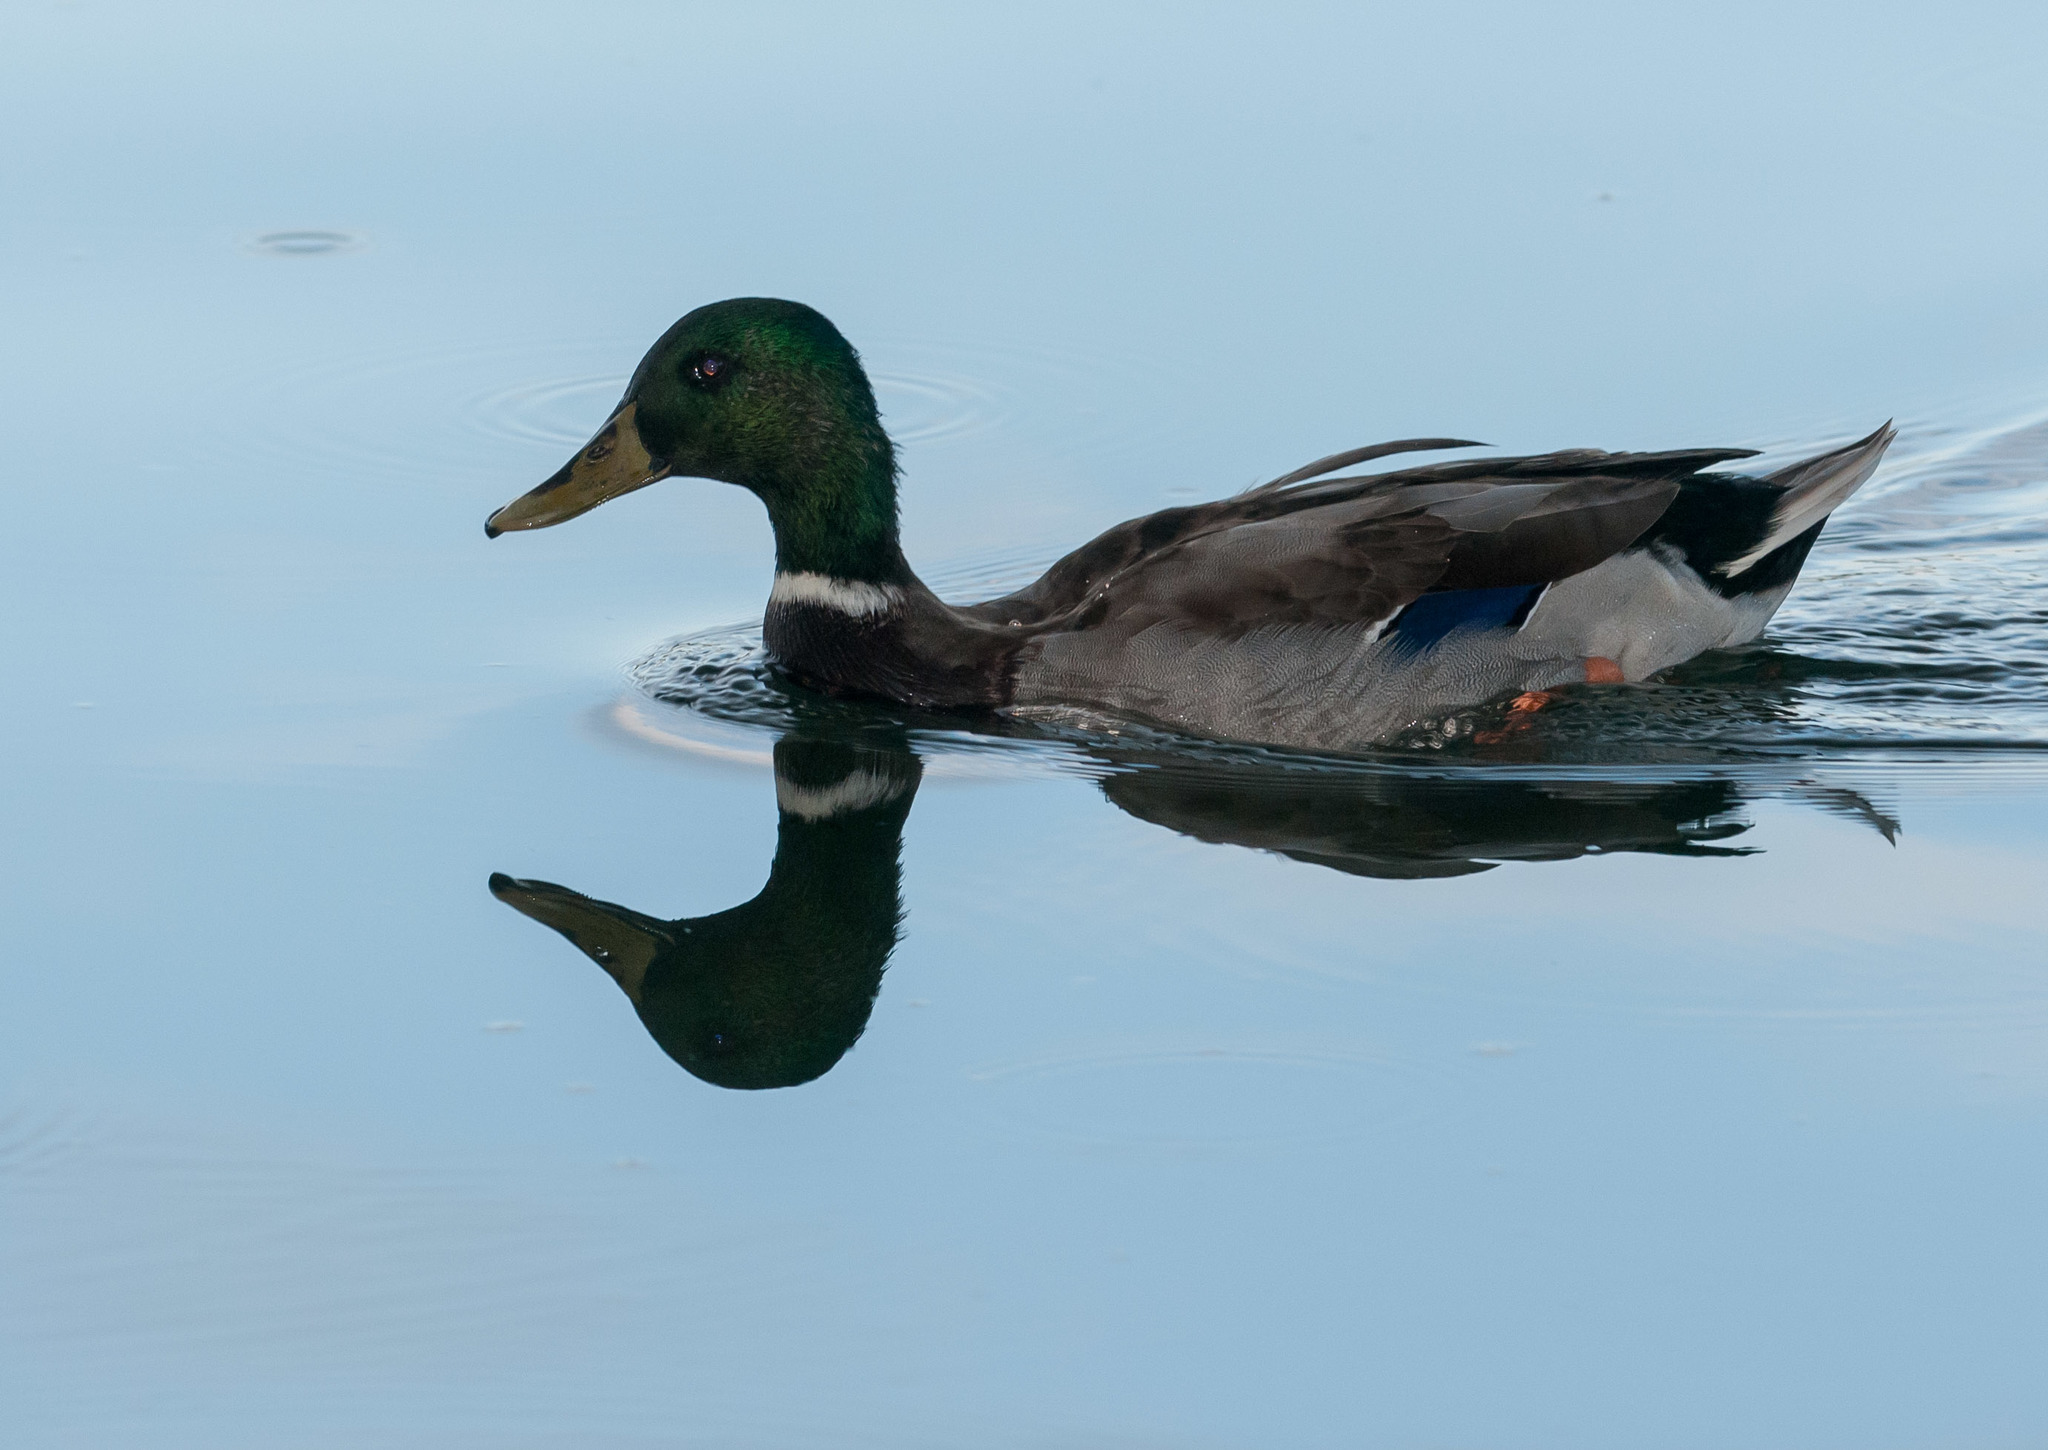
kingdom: Animalia
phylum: Chordata
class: Aves
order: Anseriformes
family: Anatidae
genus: Anas
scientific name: Anas platyrhynchos
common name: Mallard
